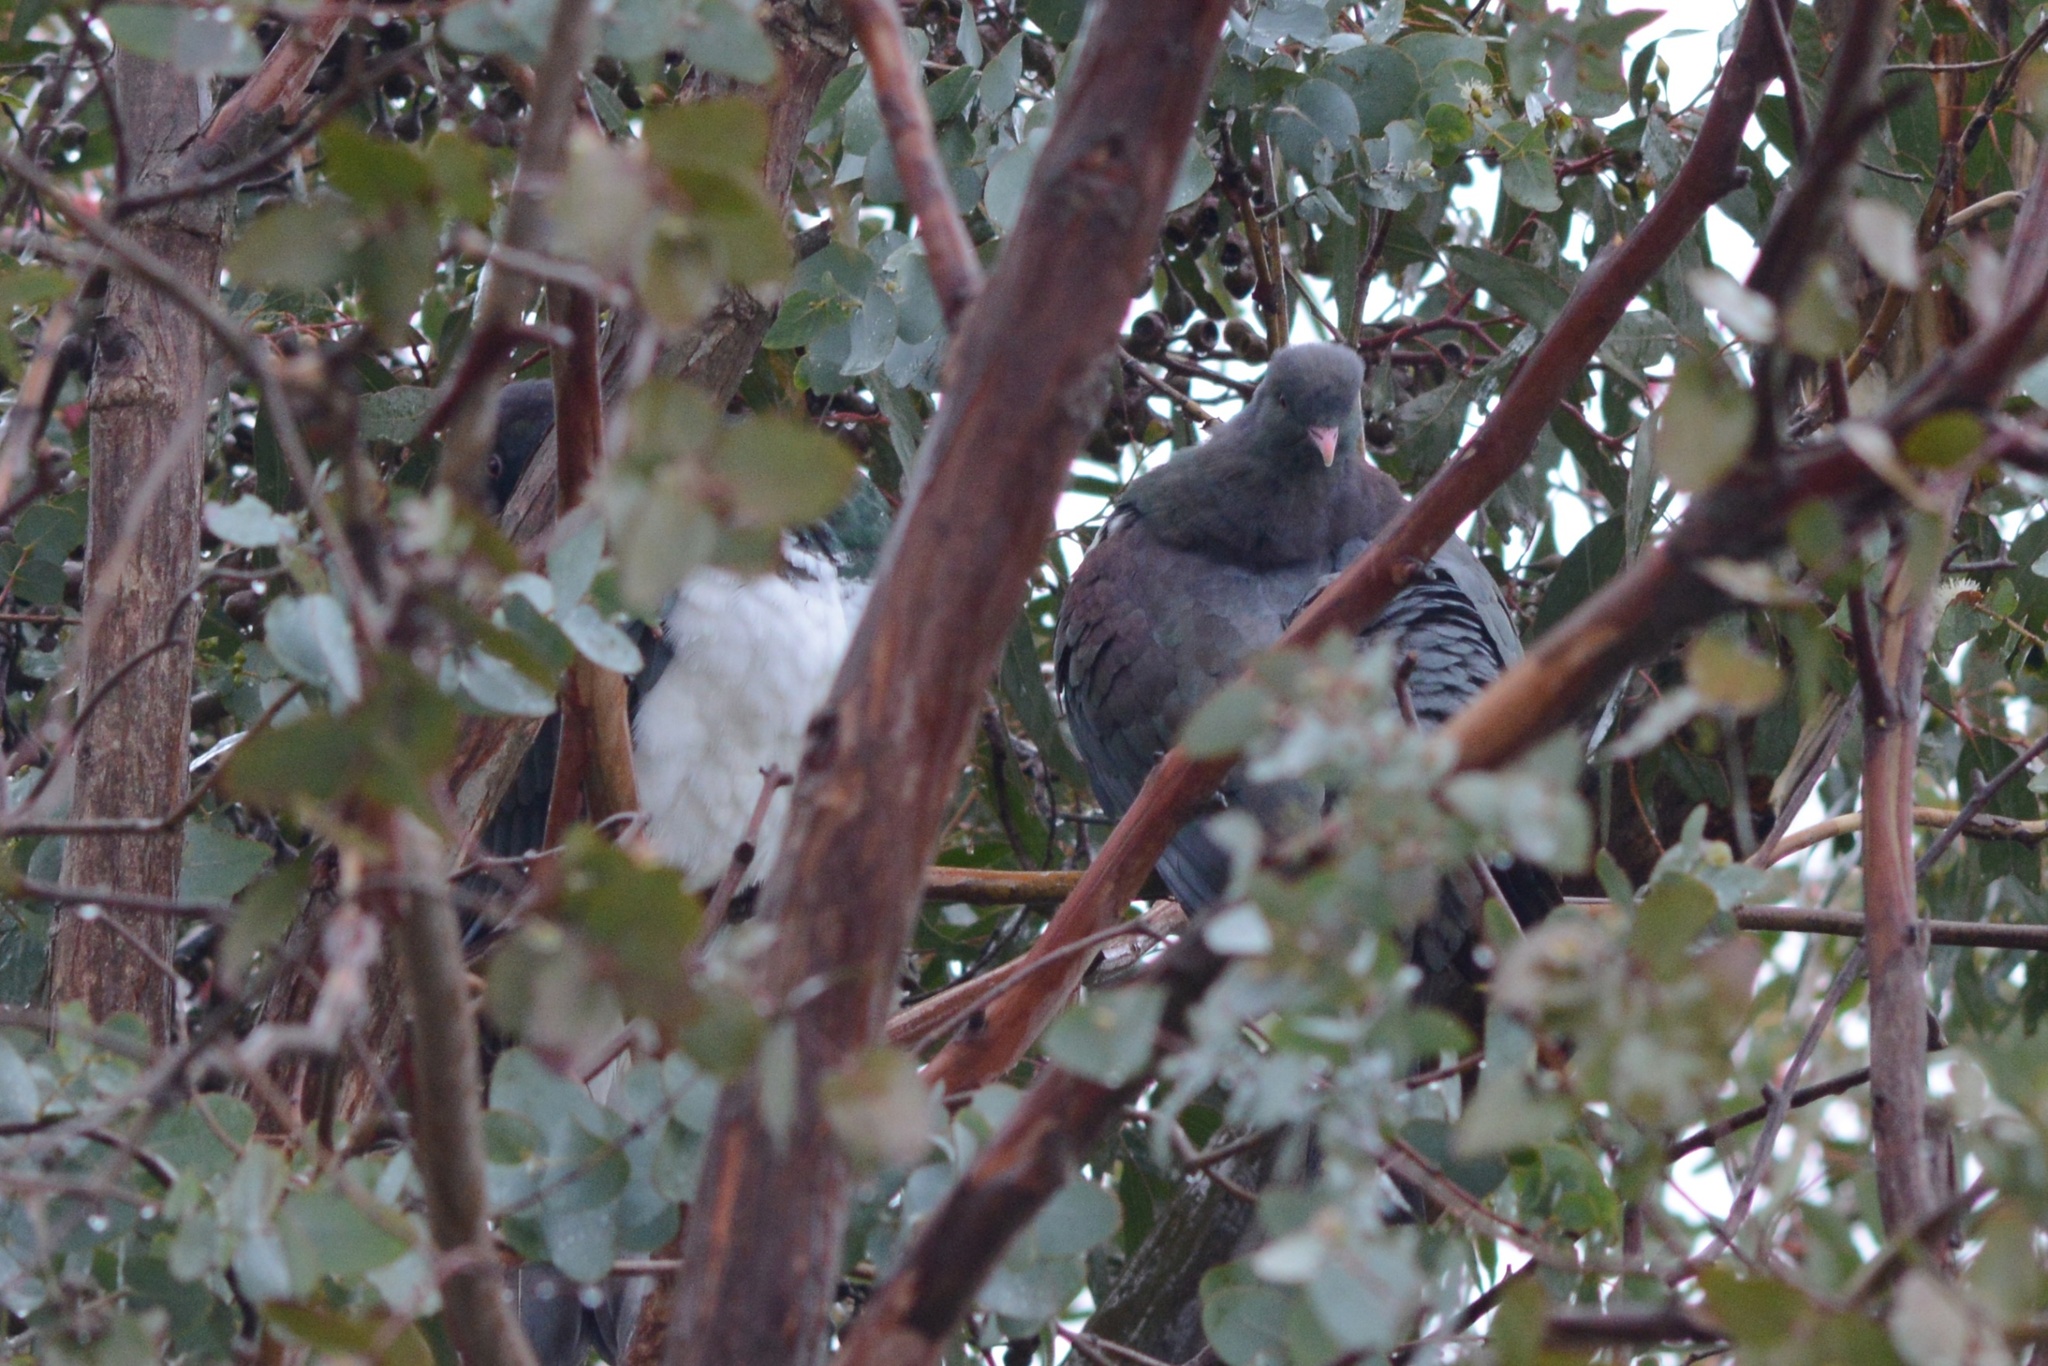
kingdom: Animalia
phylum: Chordata
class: Aves
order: Columbiformes
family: Columbidae
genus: Hemiphaga
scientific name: Hemiphaga novaeseelandiae
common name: New zealand pigeon
